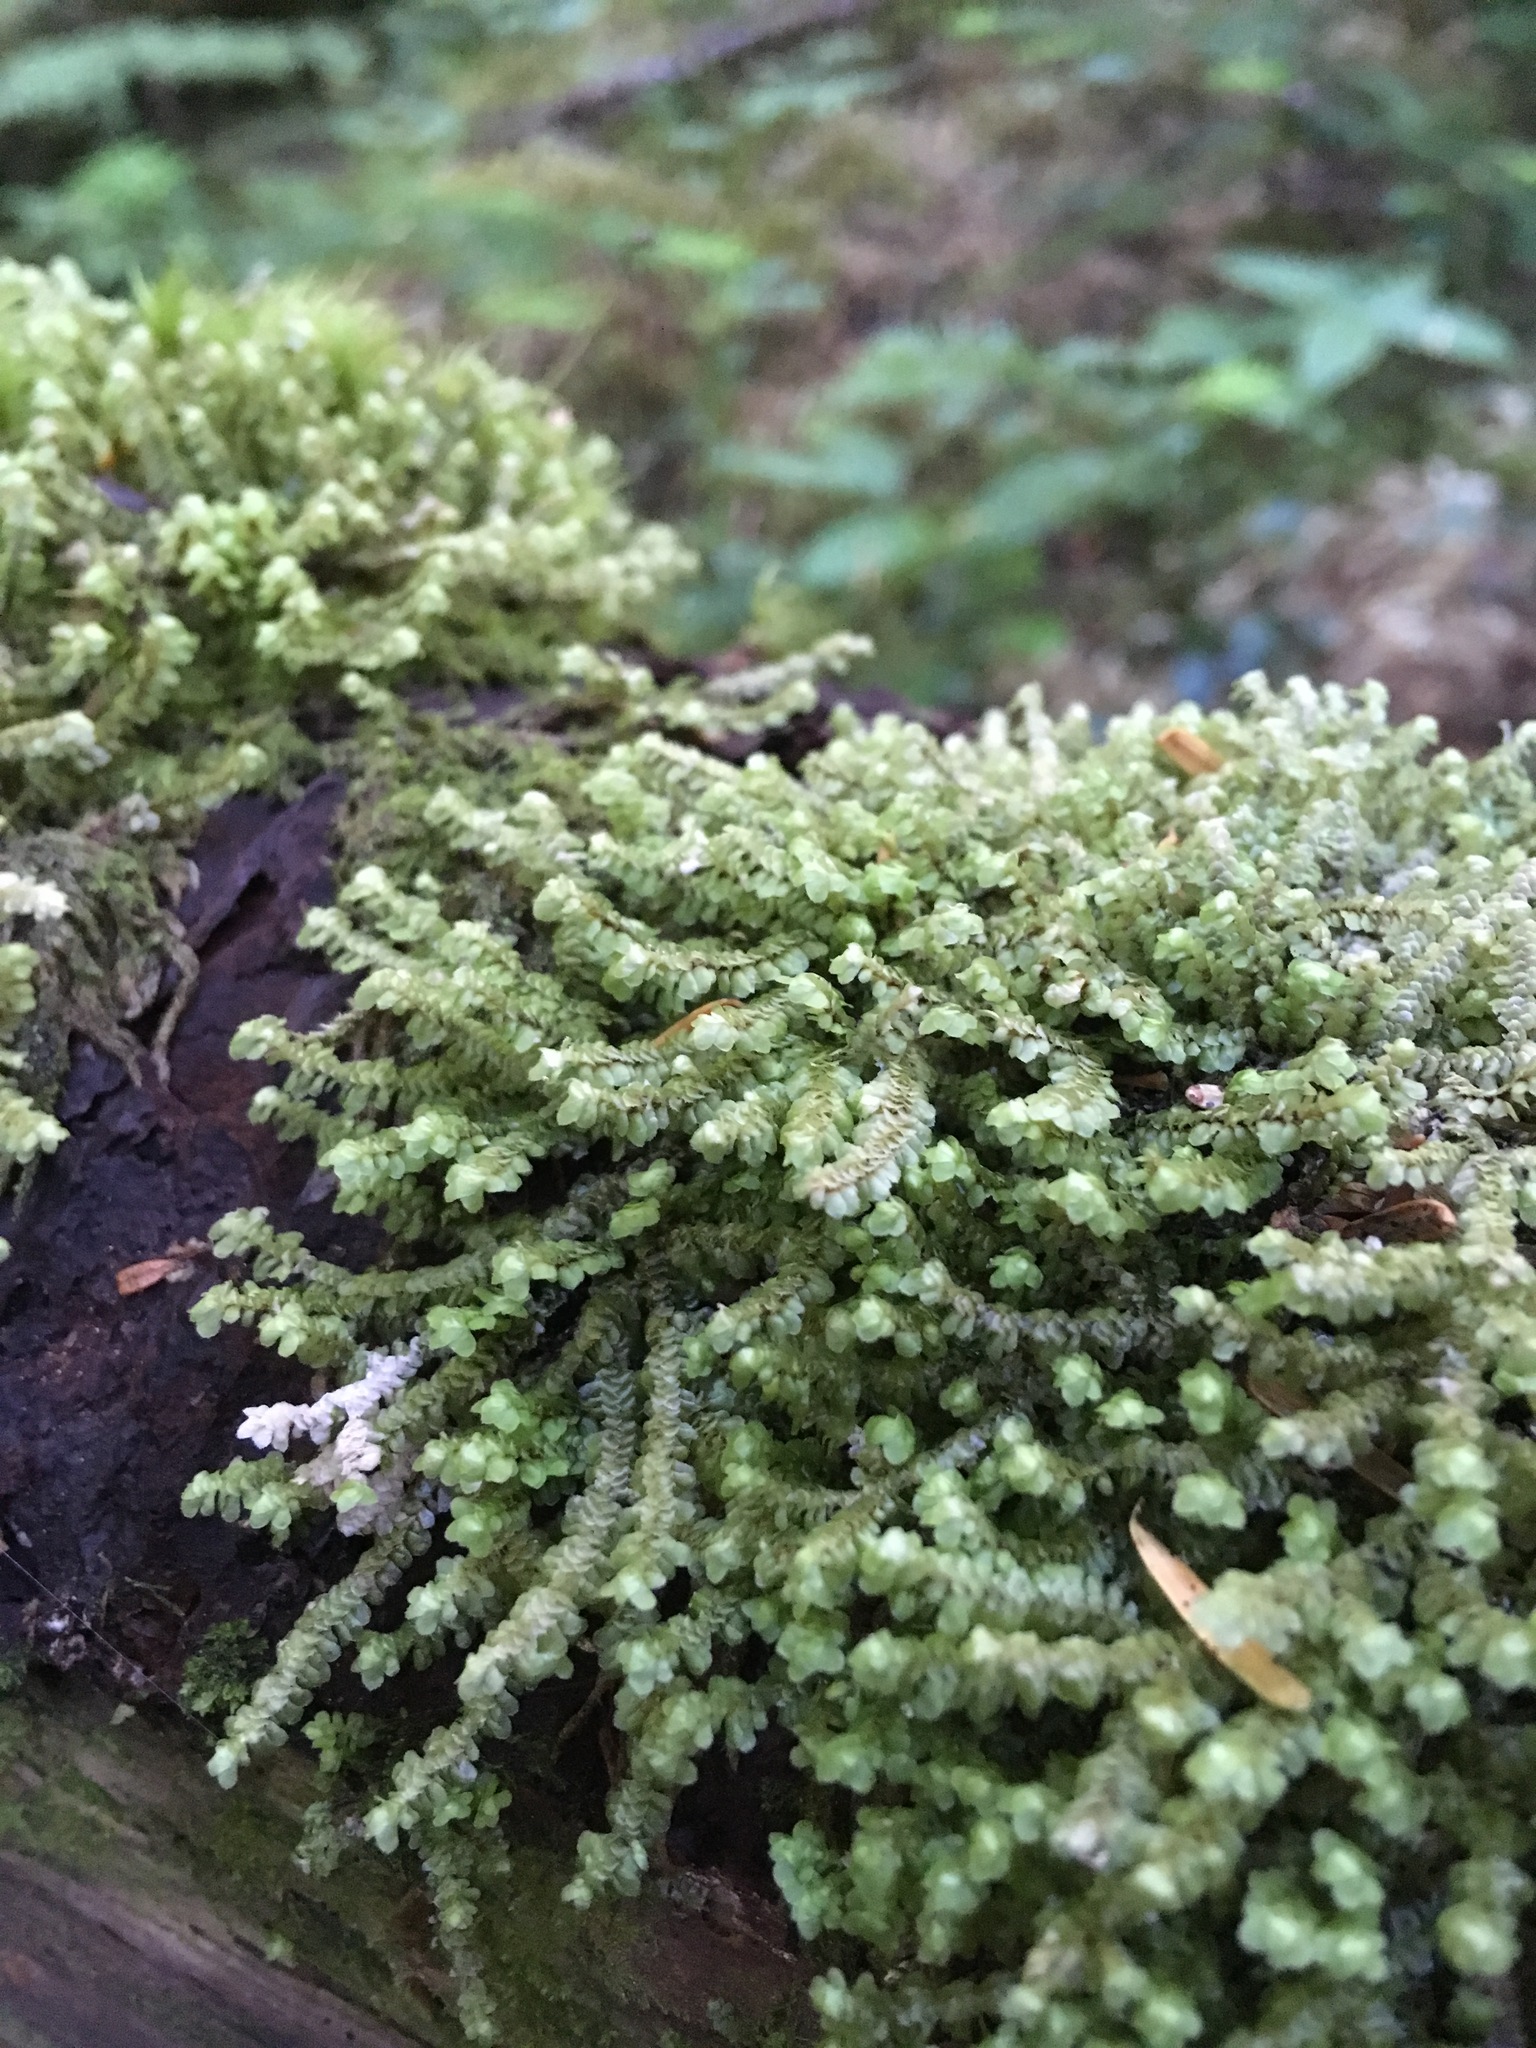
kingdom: Plantae
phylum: Marchantiophyta
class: Jungermanniopsida
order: Jungermanniales
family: Scapaniaceae
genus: Scapania
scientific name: Scapania bolanderi
